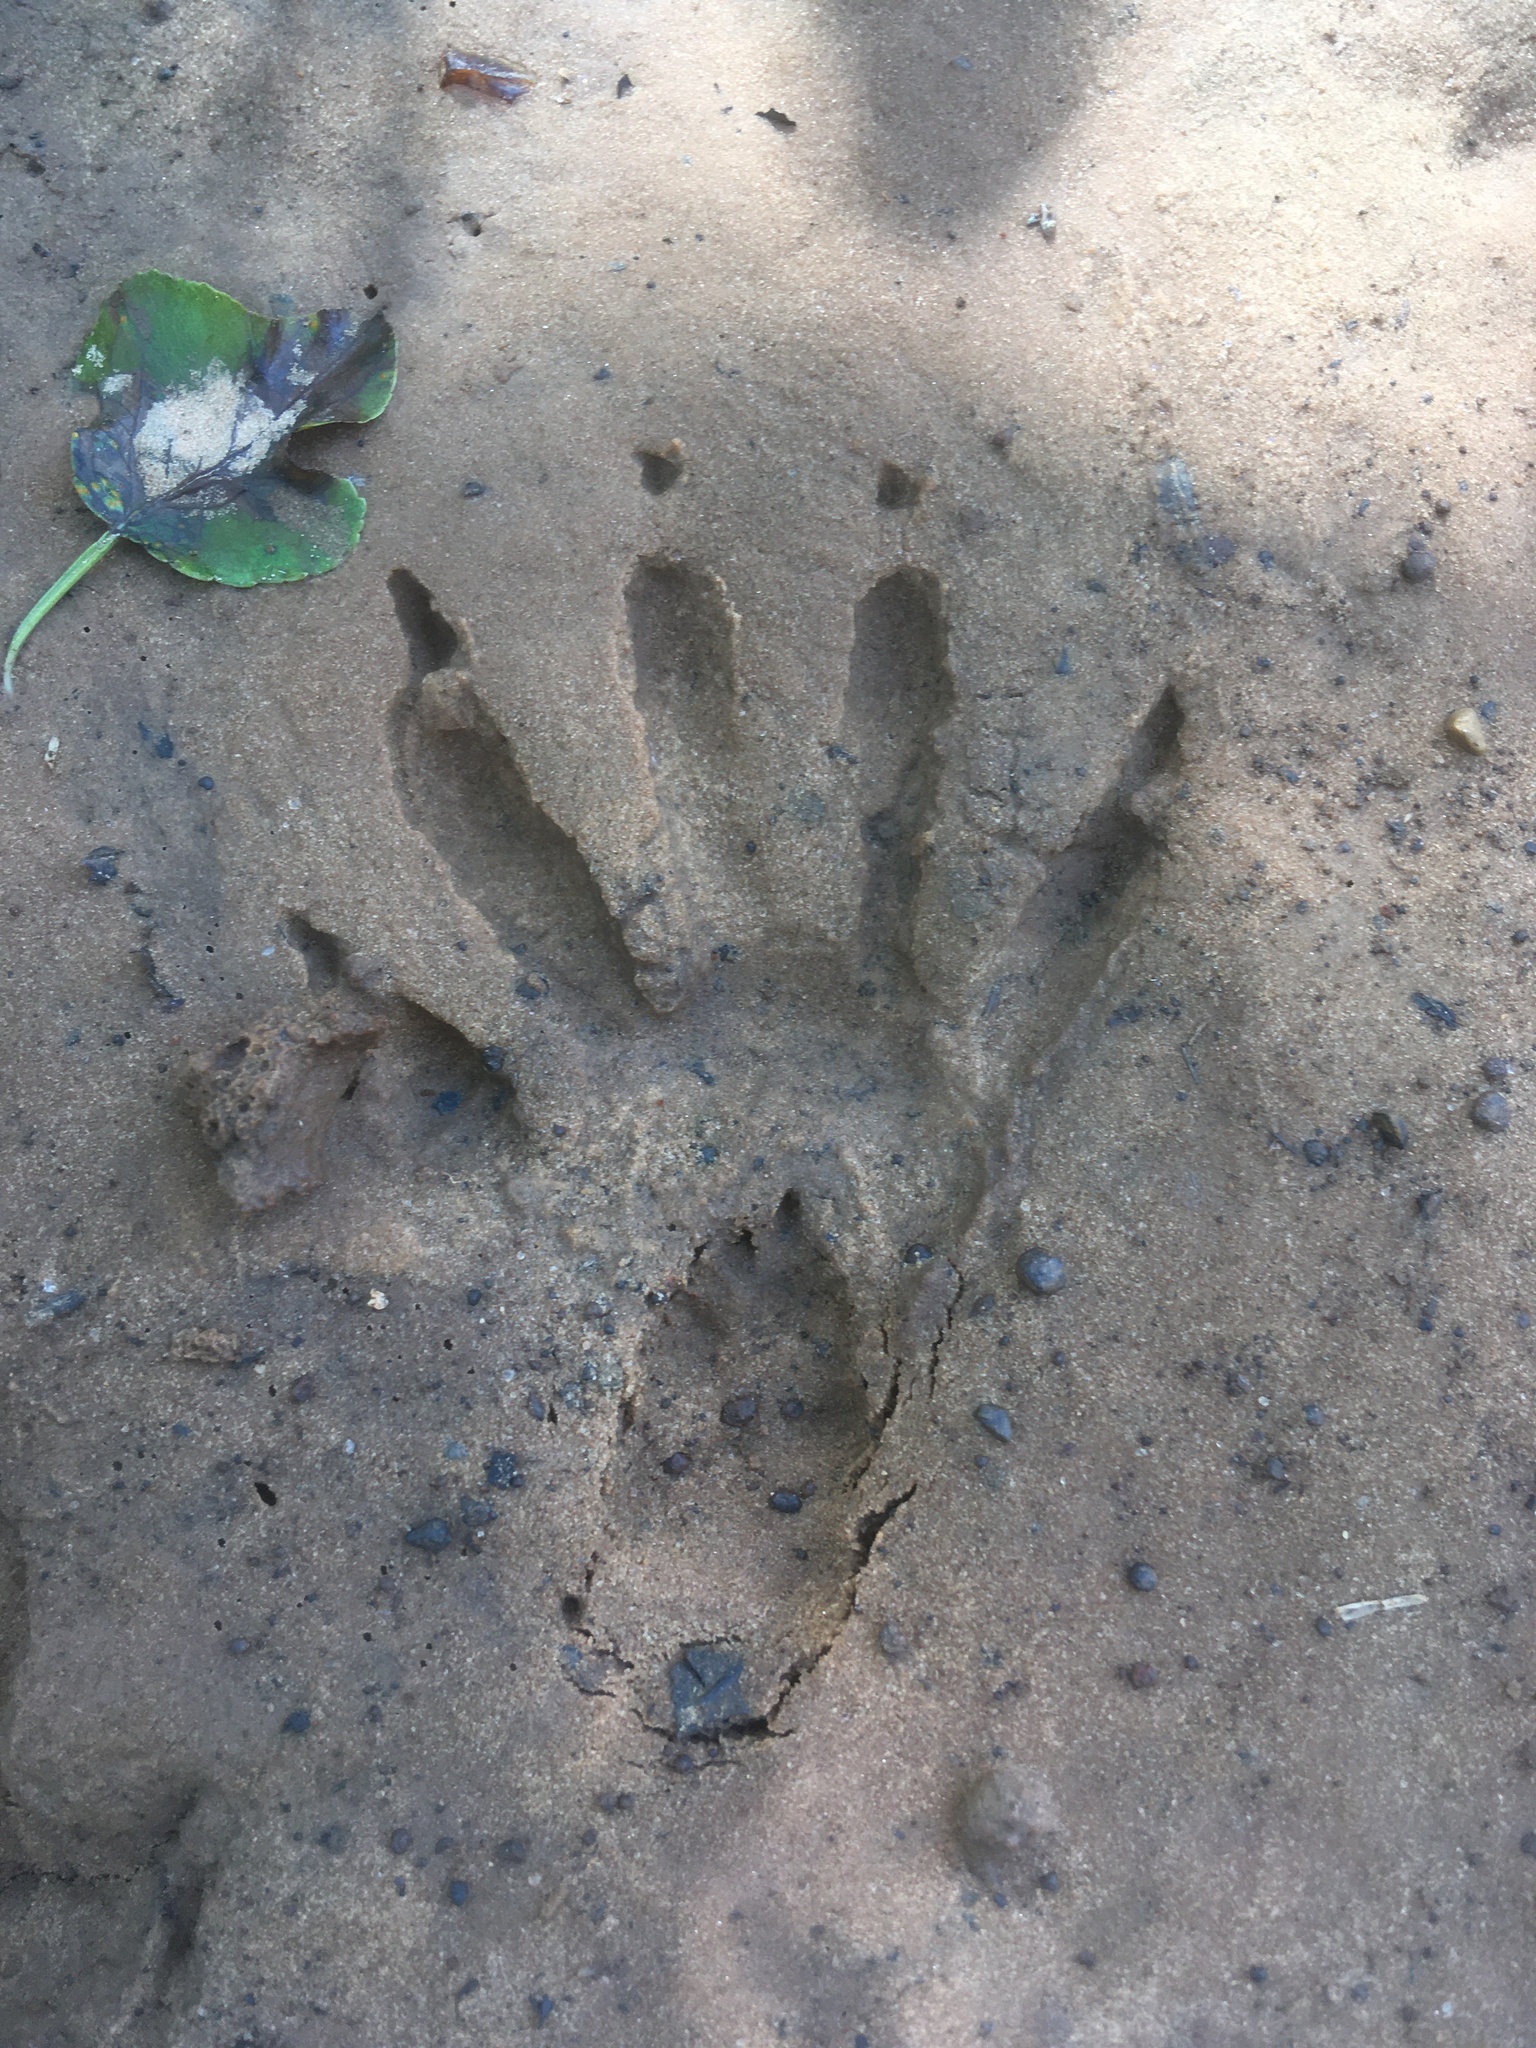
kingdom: Animalia
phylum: Chordata
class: Mammalia
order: Carnivora
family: Procyonidae
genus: Procyon
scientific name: Procyon lotor
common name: Raccoon
